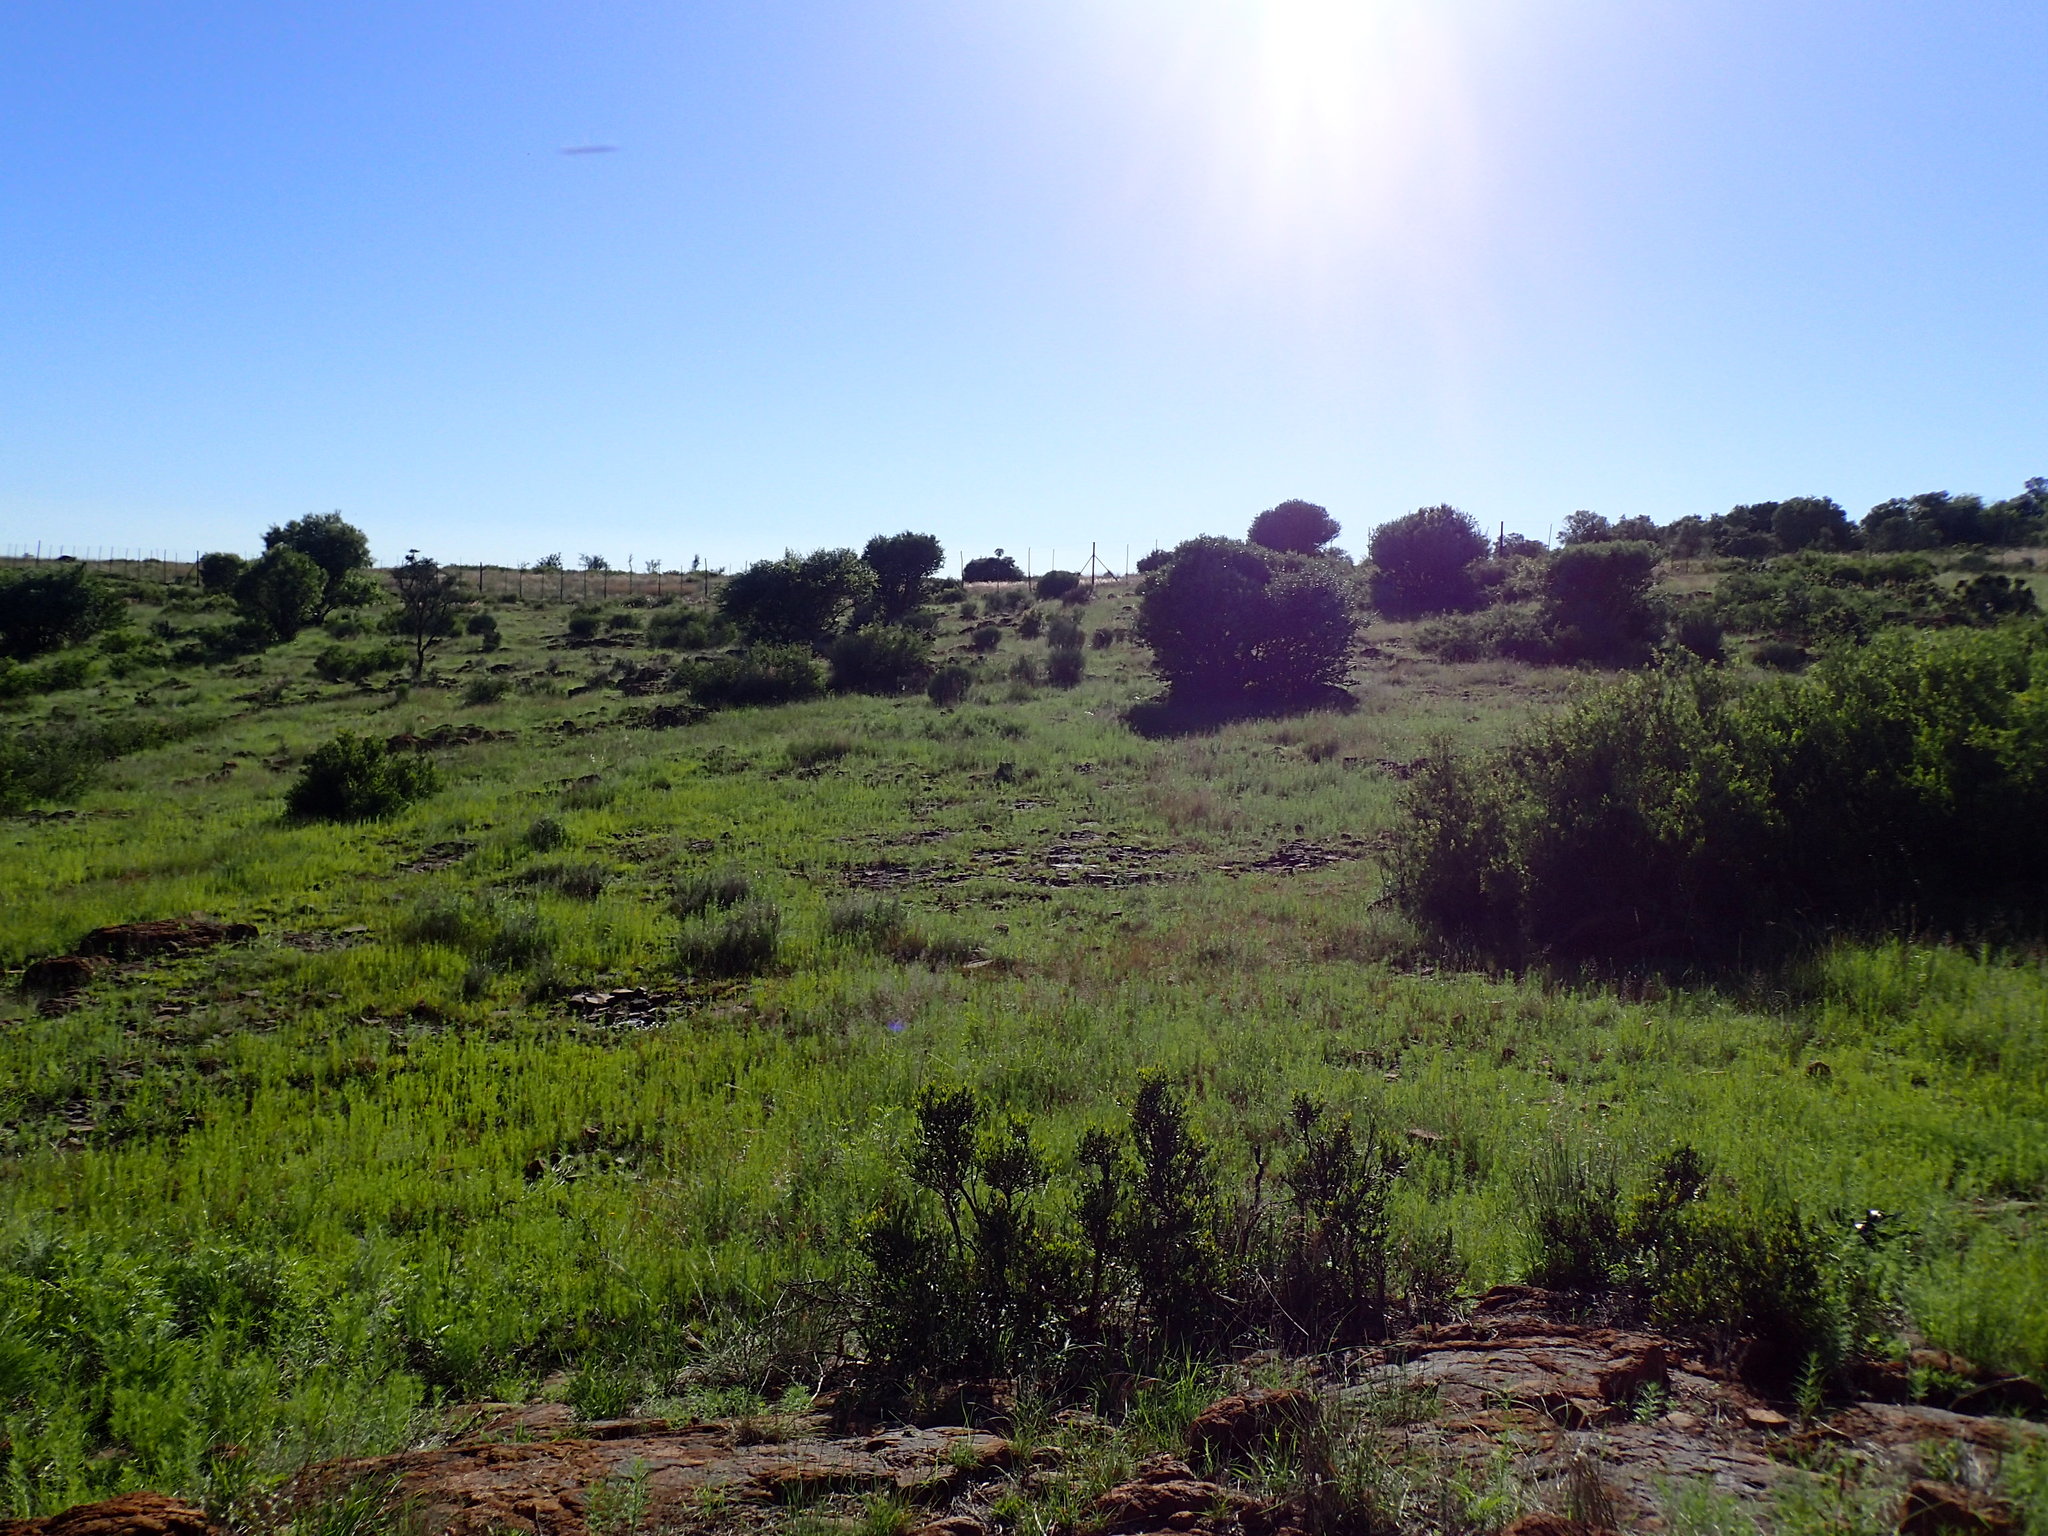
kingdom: Plantae
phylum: Tracheophyta
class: Magnoliopsida
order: Lamiales
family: Scrophulariaceae
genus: Buddleja
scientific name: Buddleja saligna
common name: False olive
